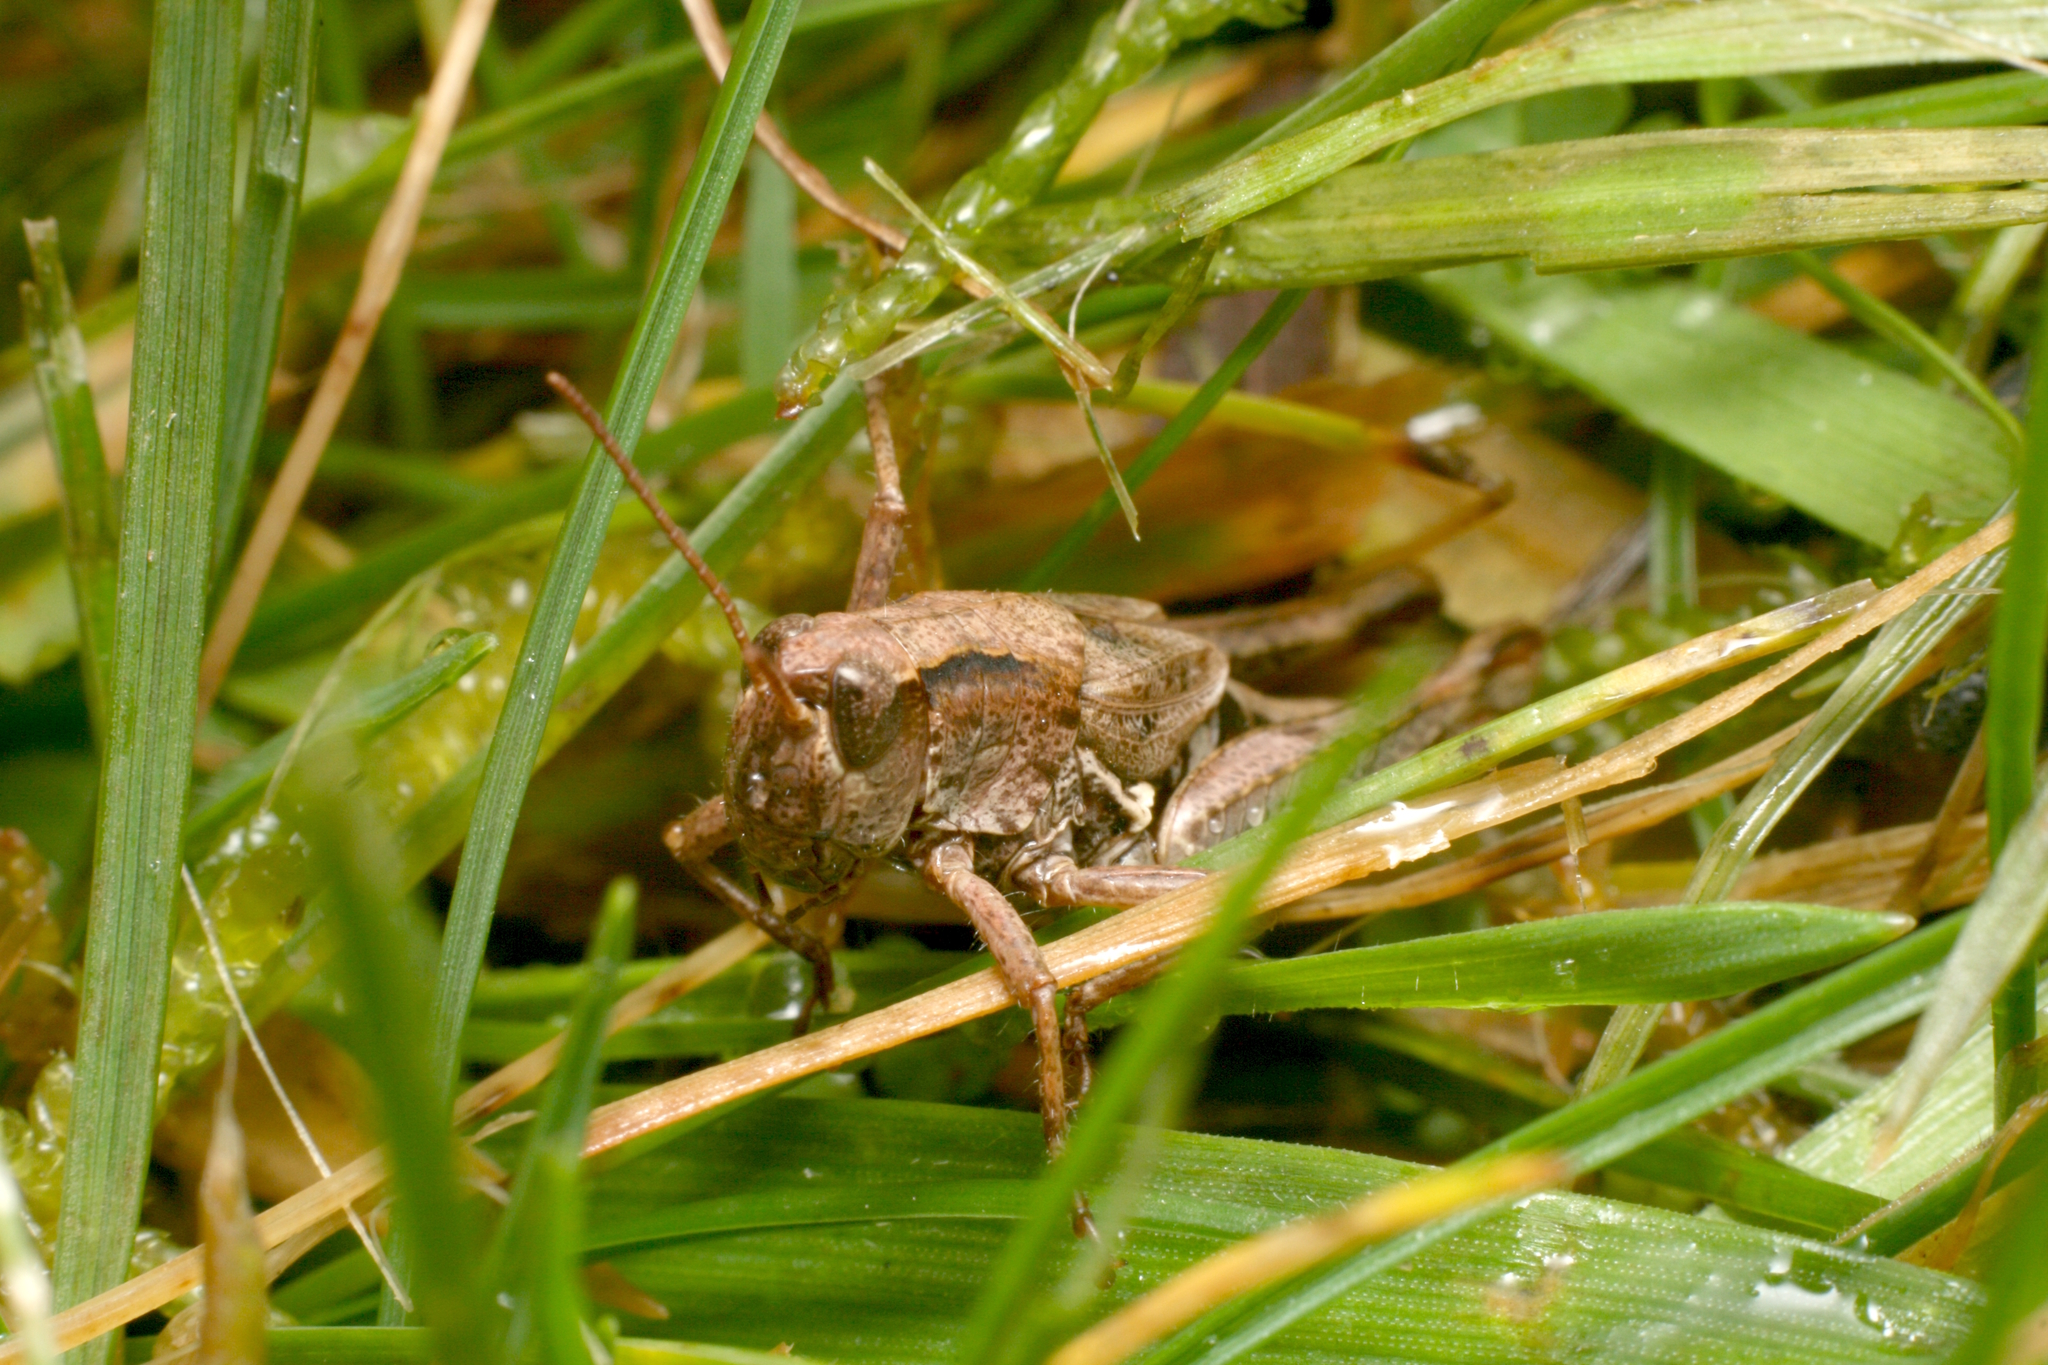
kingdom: Animalia
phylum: Arthropoda
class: Insecta
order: Orthoptera
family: Acrididae
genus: Phaulacridium
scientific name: Phaulacridium marginale
